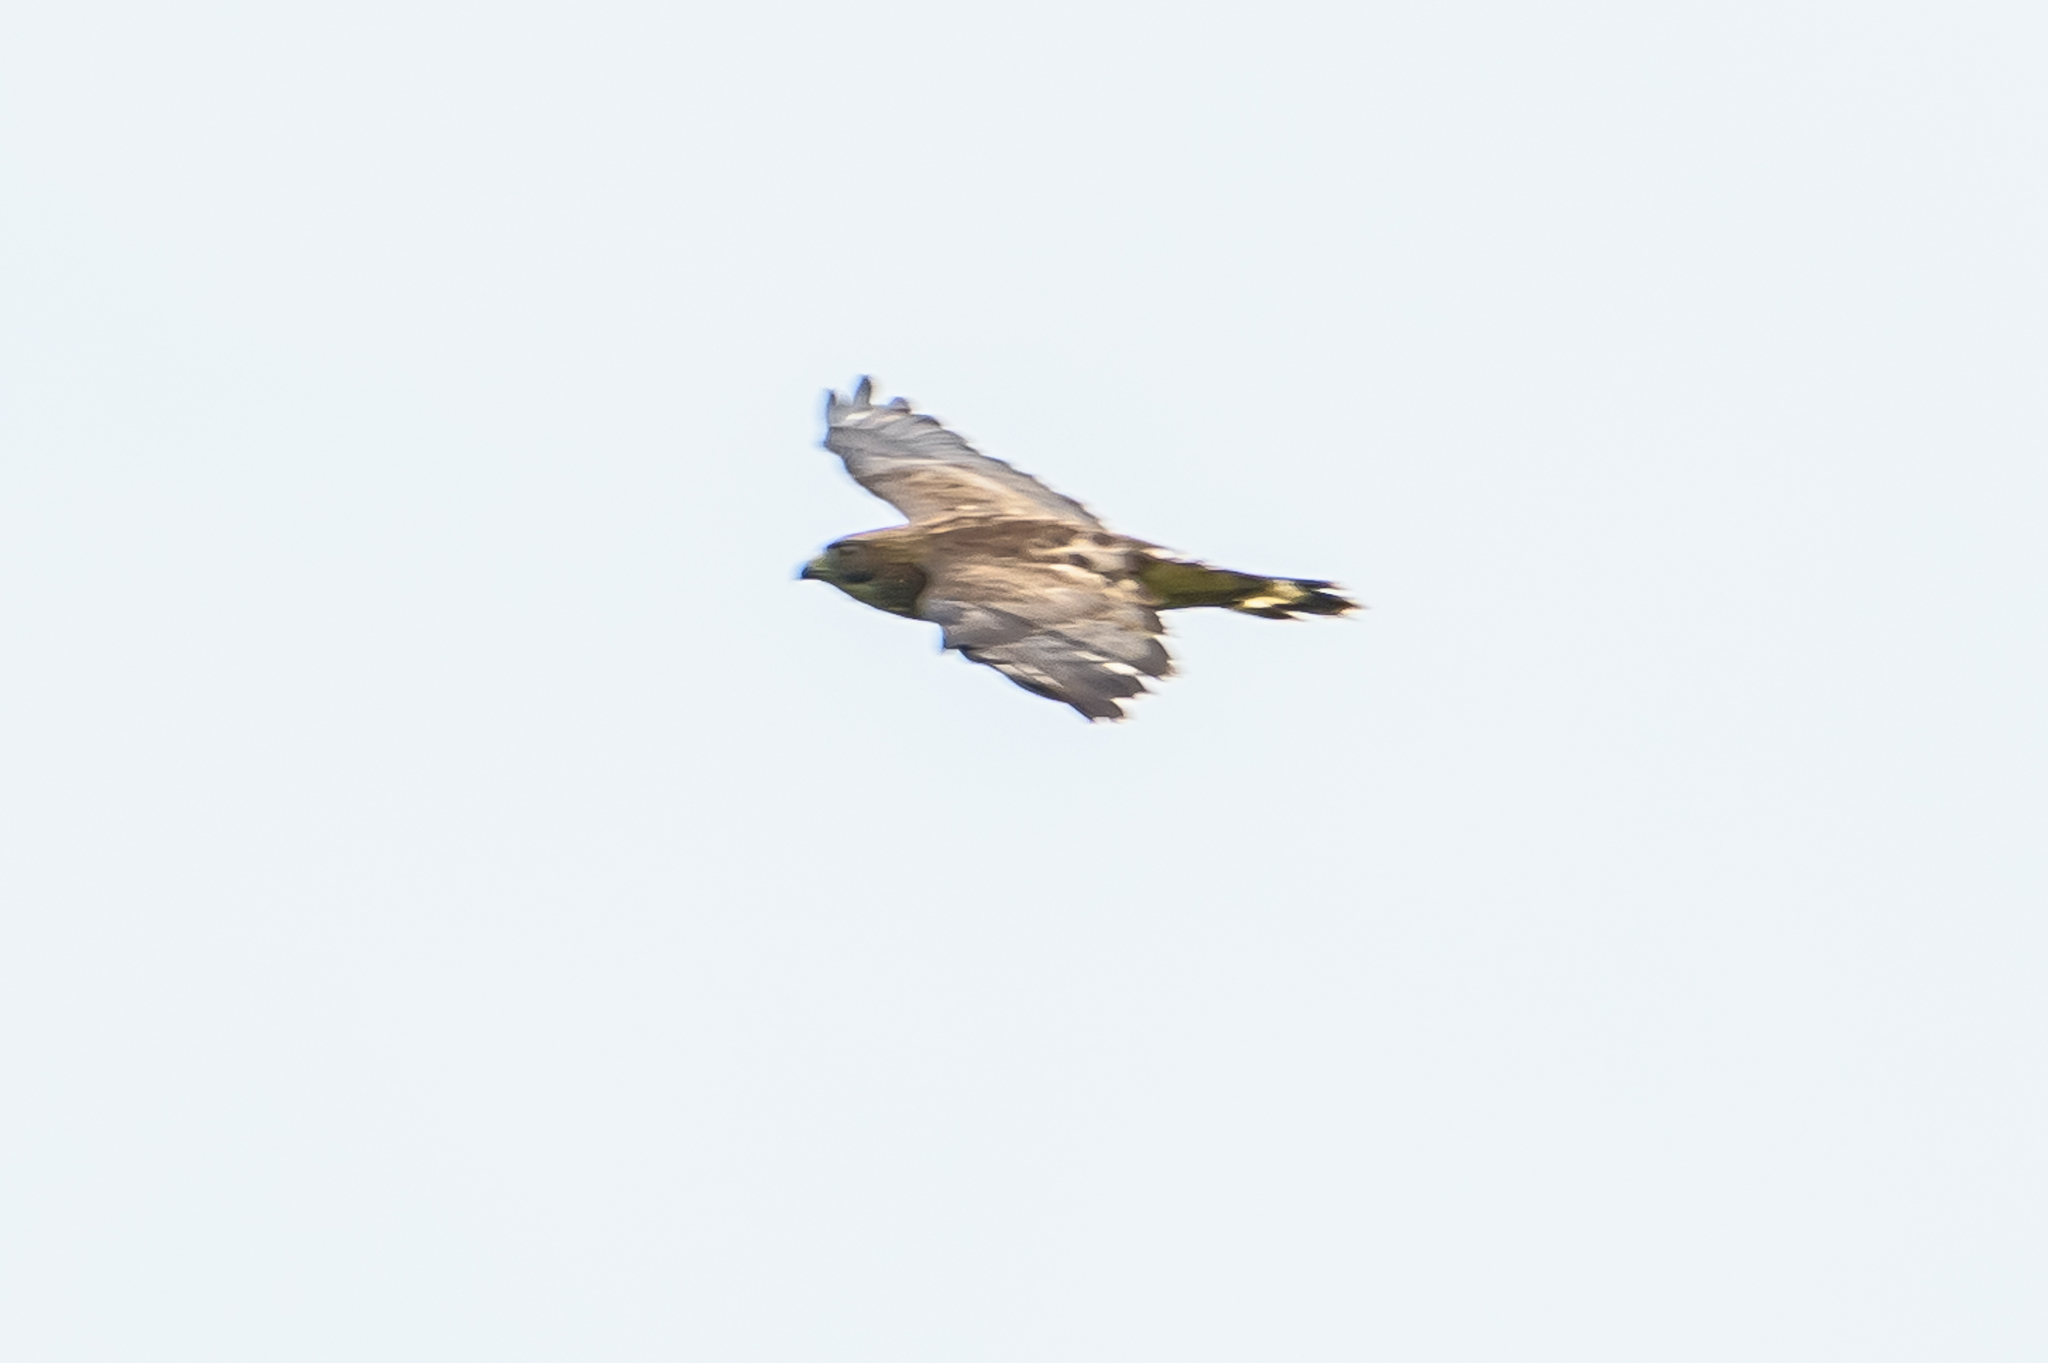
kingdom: Animalia
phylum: Chordata
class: Aves
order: Accipitriformes
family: Accipitridae
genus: Buteo
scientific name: Buteo platypterus
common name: Broad-winged hawk
